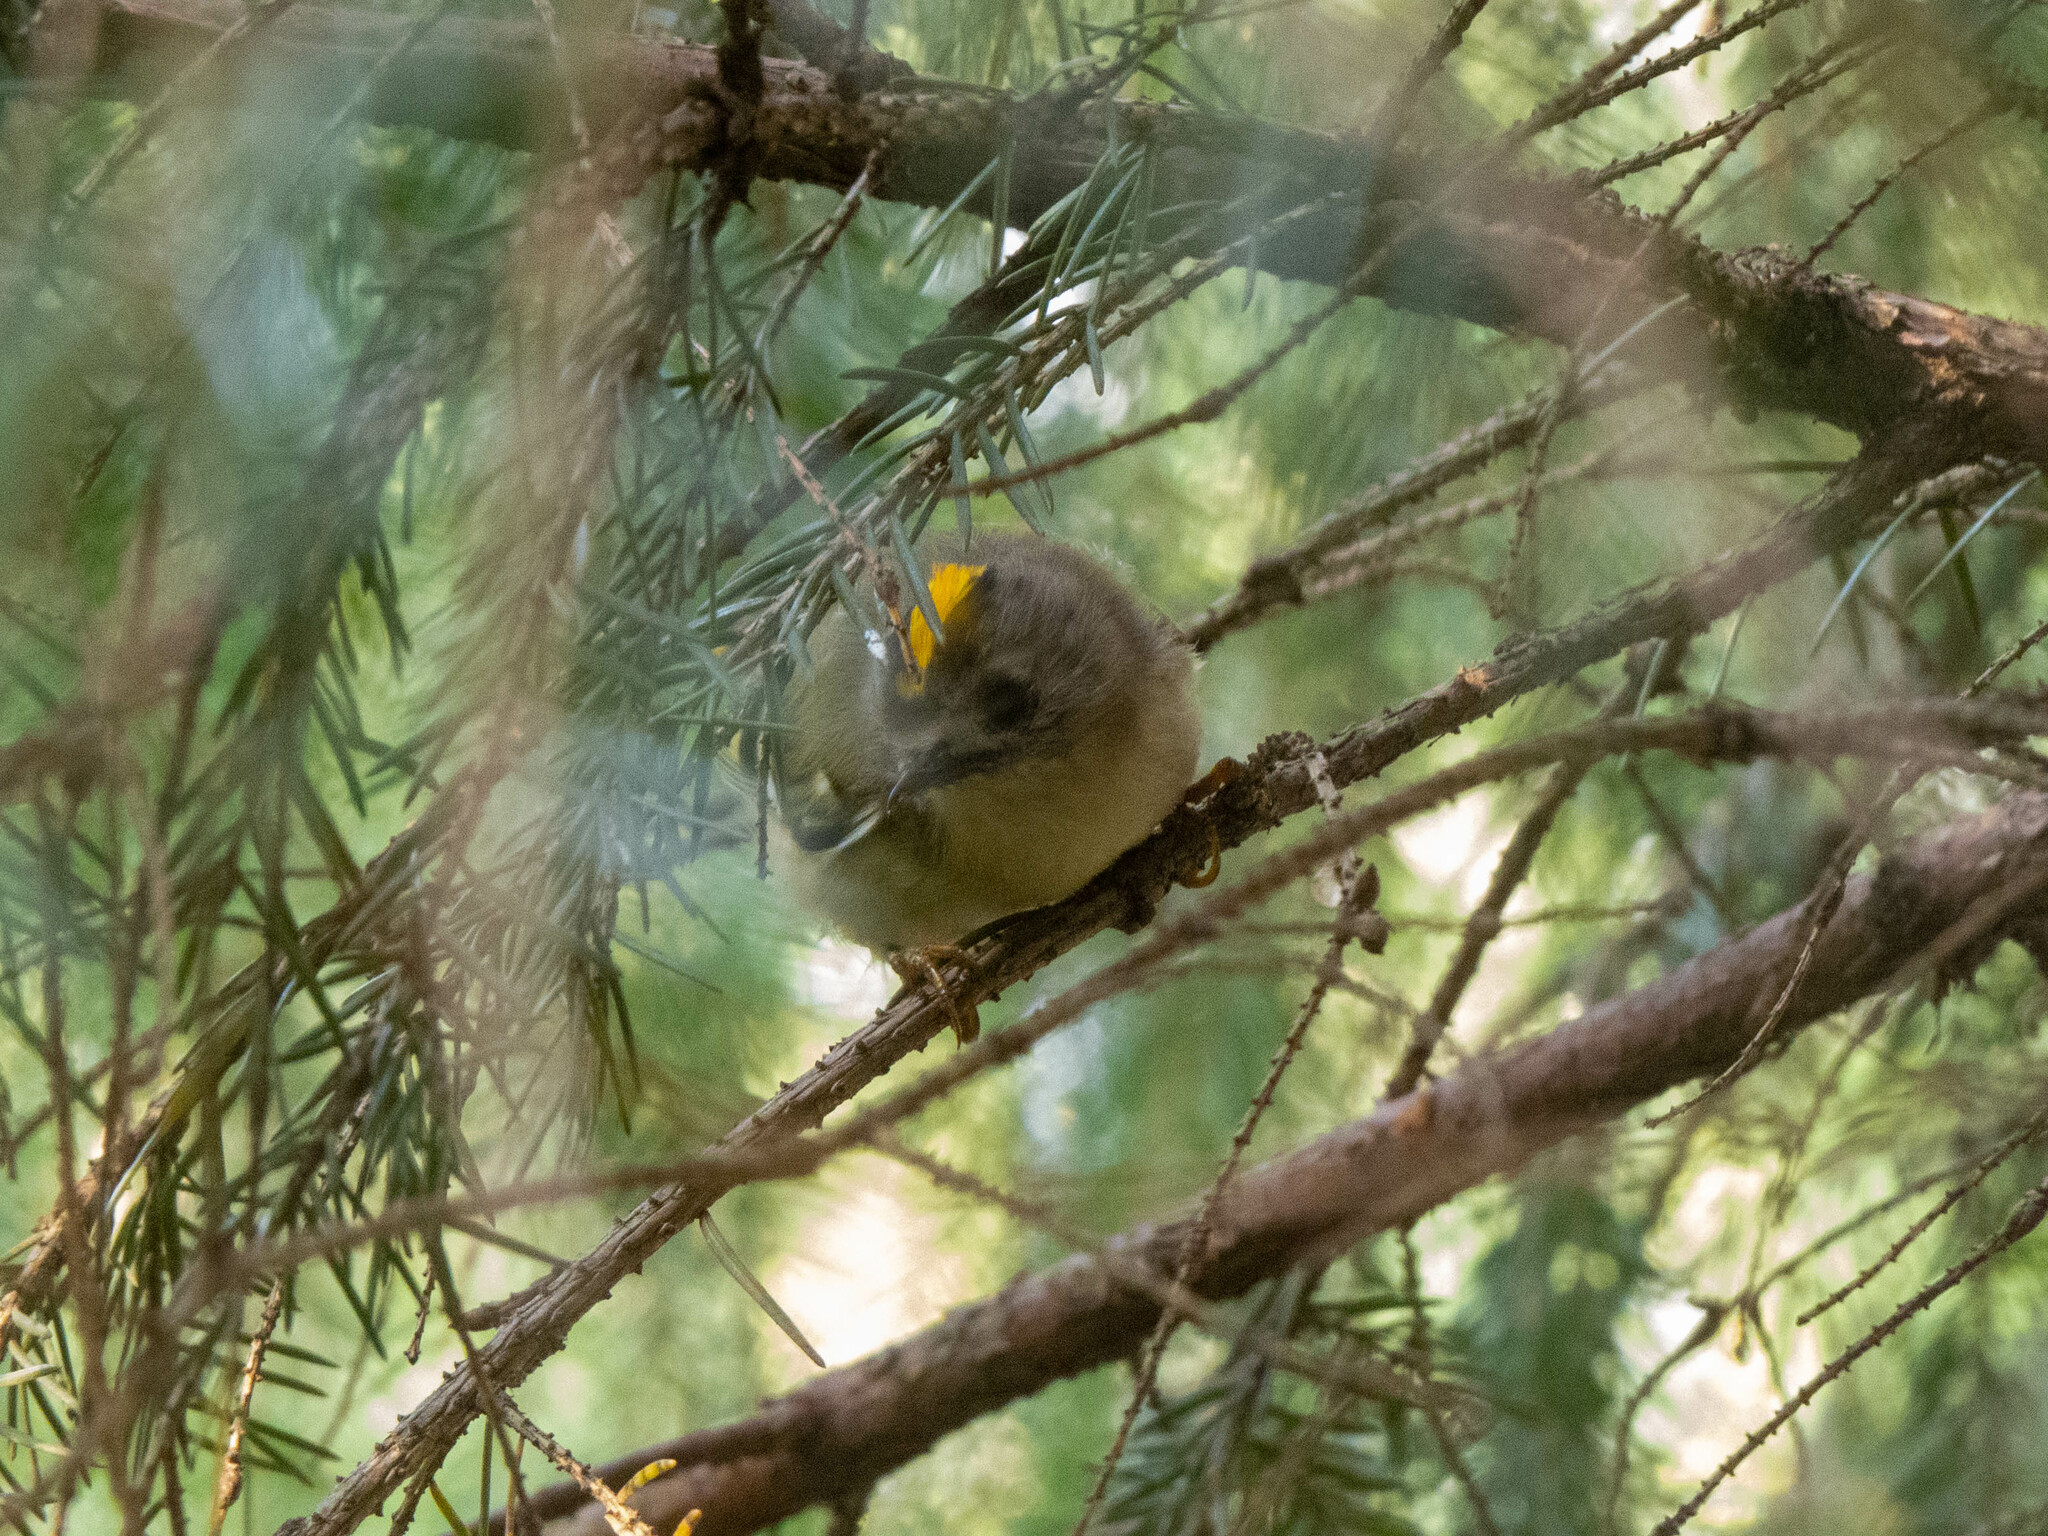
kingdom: Animalia
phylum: Chordata
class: Aves
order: Passeriformes
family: Regulidae
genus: Regulus
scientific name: Regulus regulus
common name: Goldcrest
